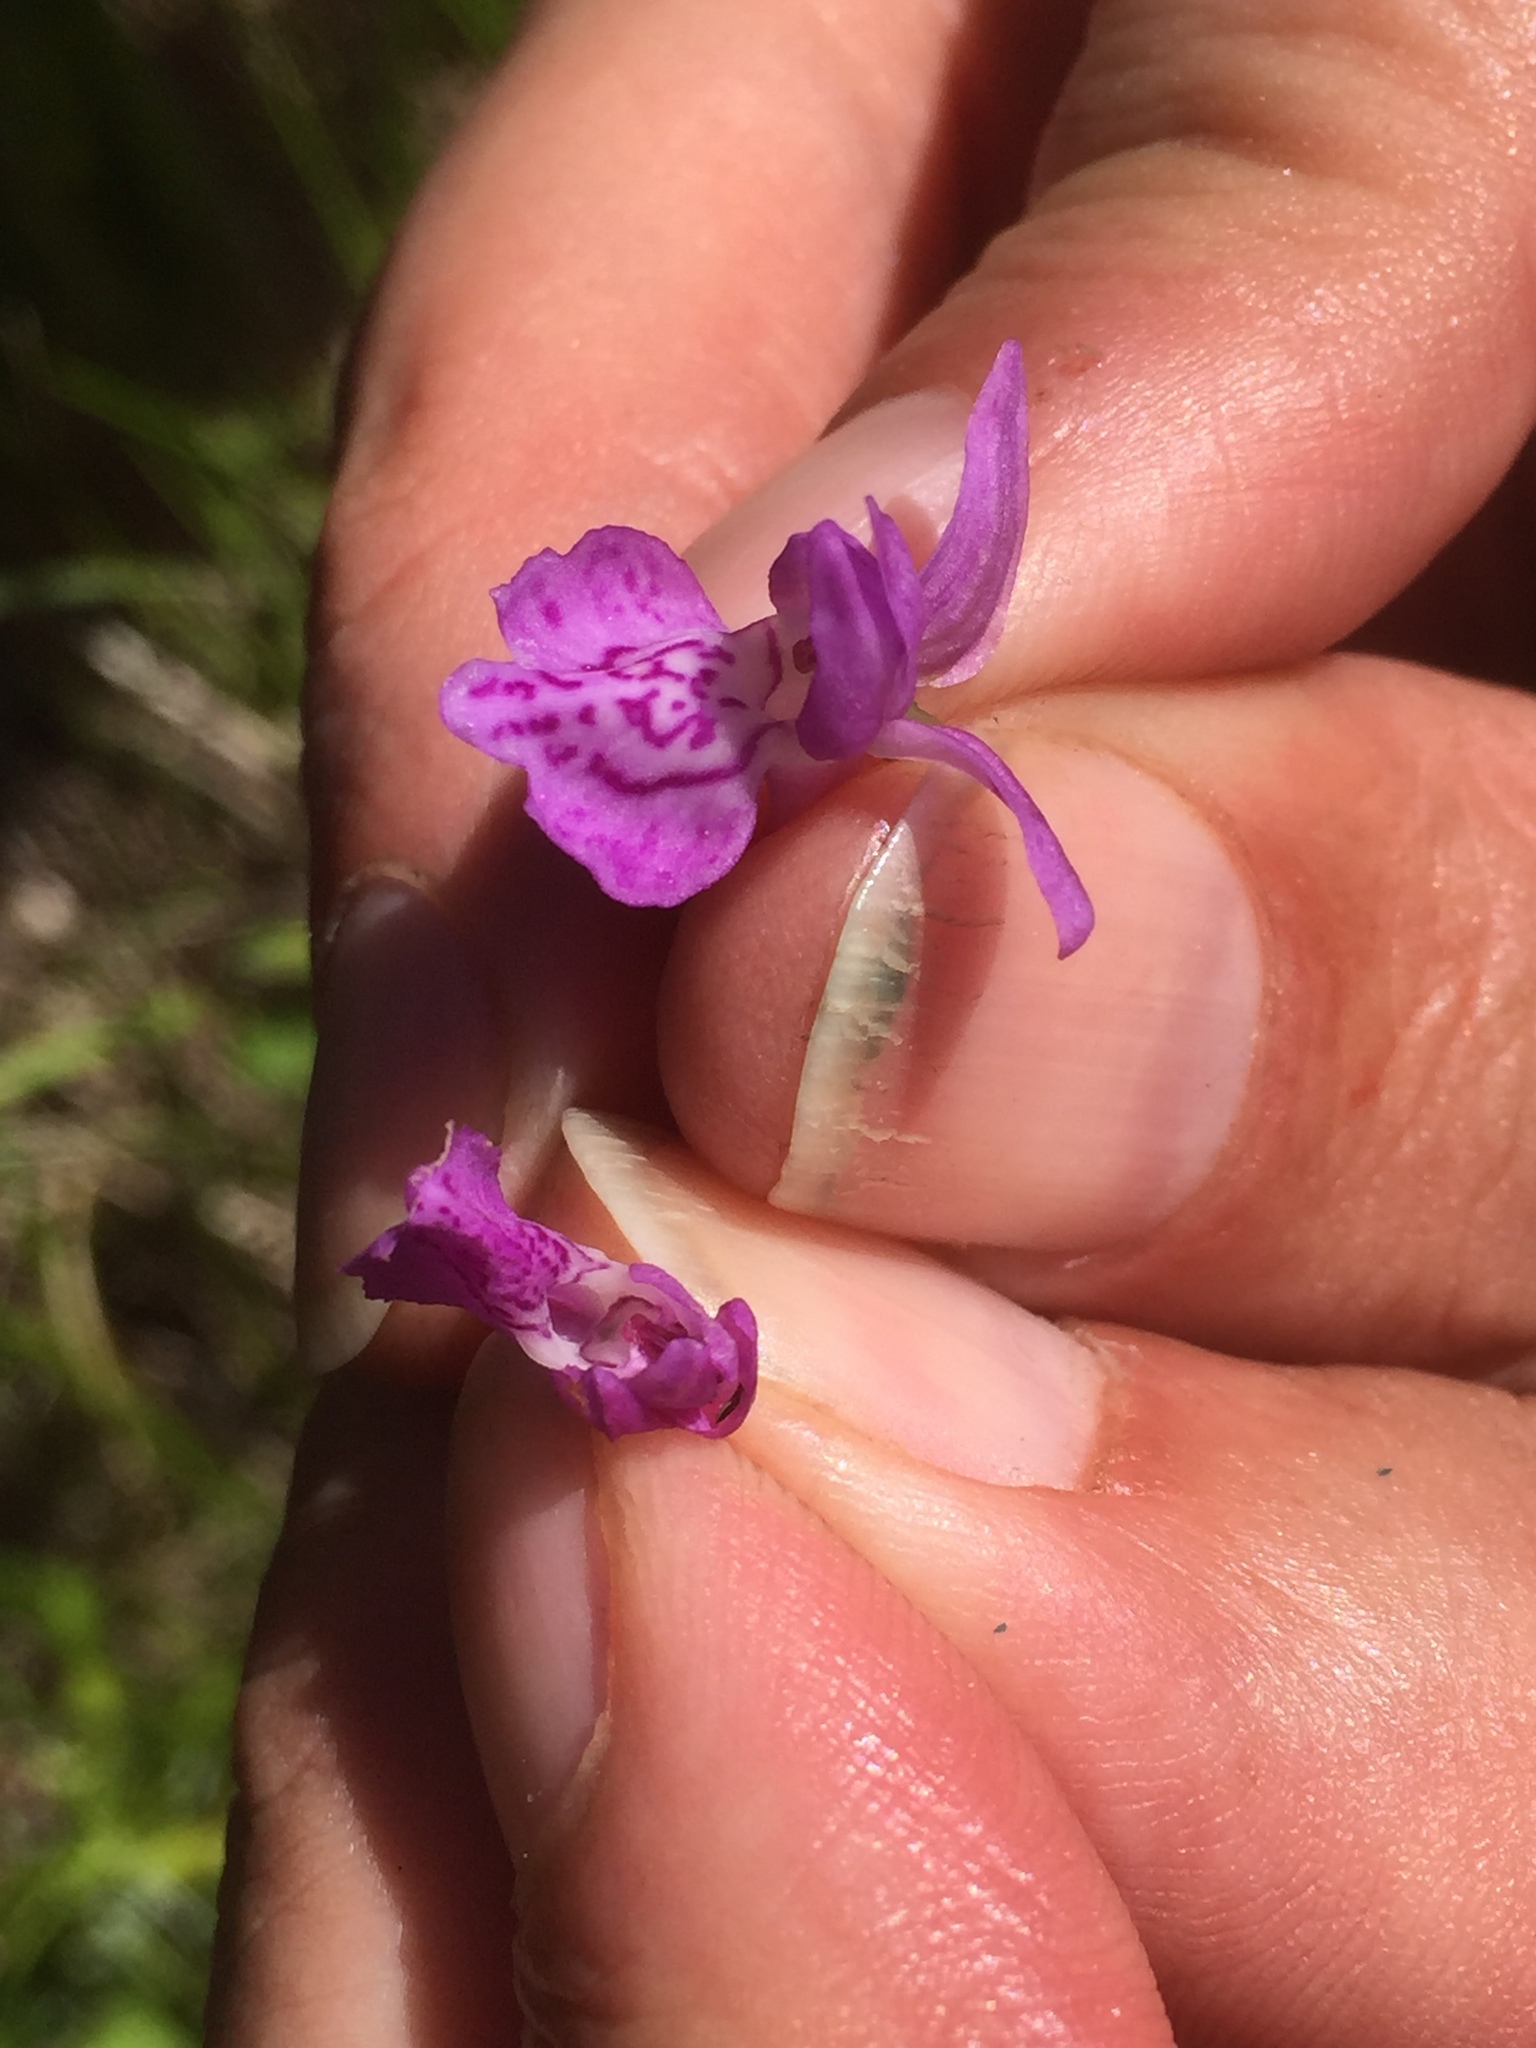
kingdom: Plantae
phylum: Tracheophyta
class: Liliopsida
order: Asparagales
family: Orchidaceae
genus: Dactylorhiza
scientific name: Dactylorhiza majalis
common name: Marsh orchid
